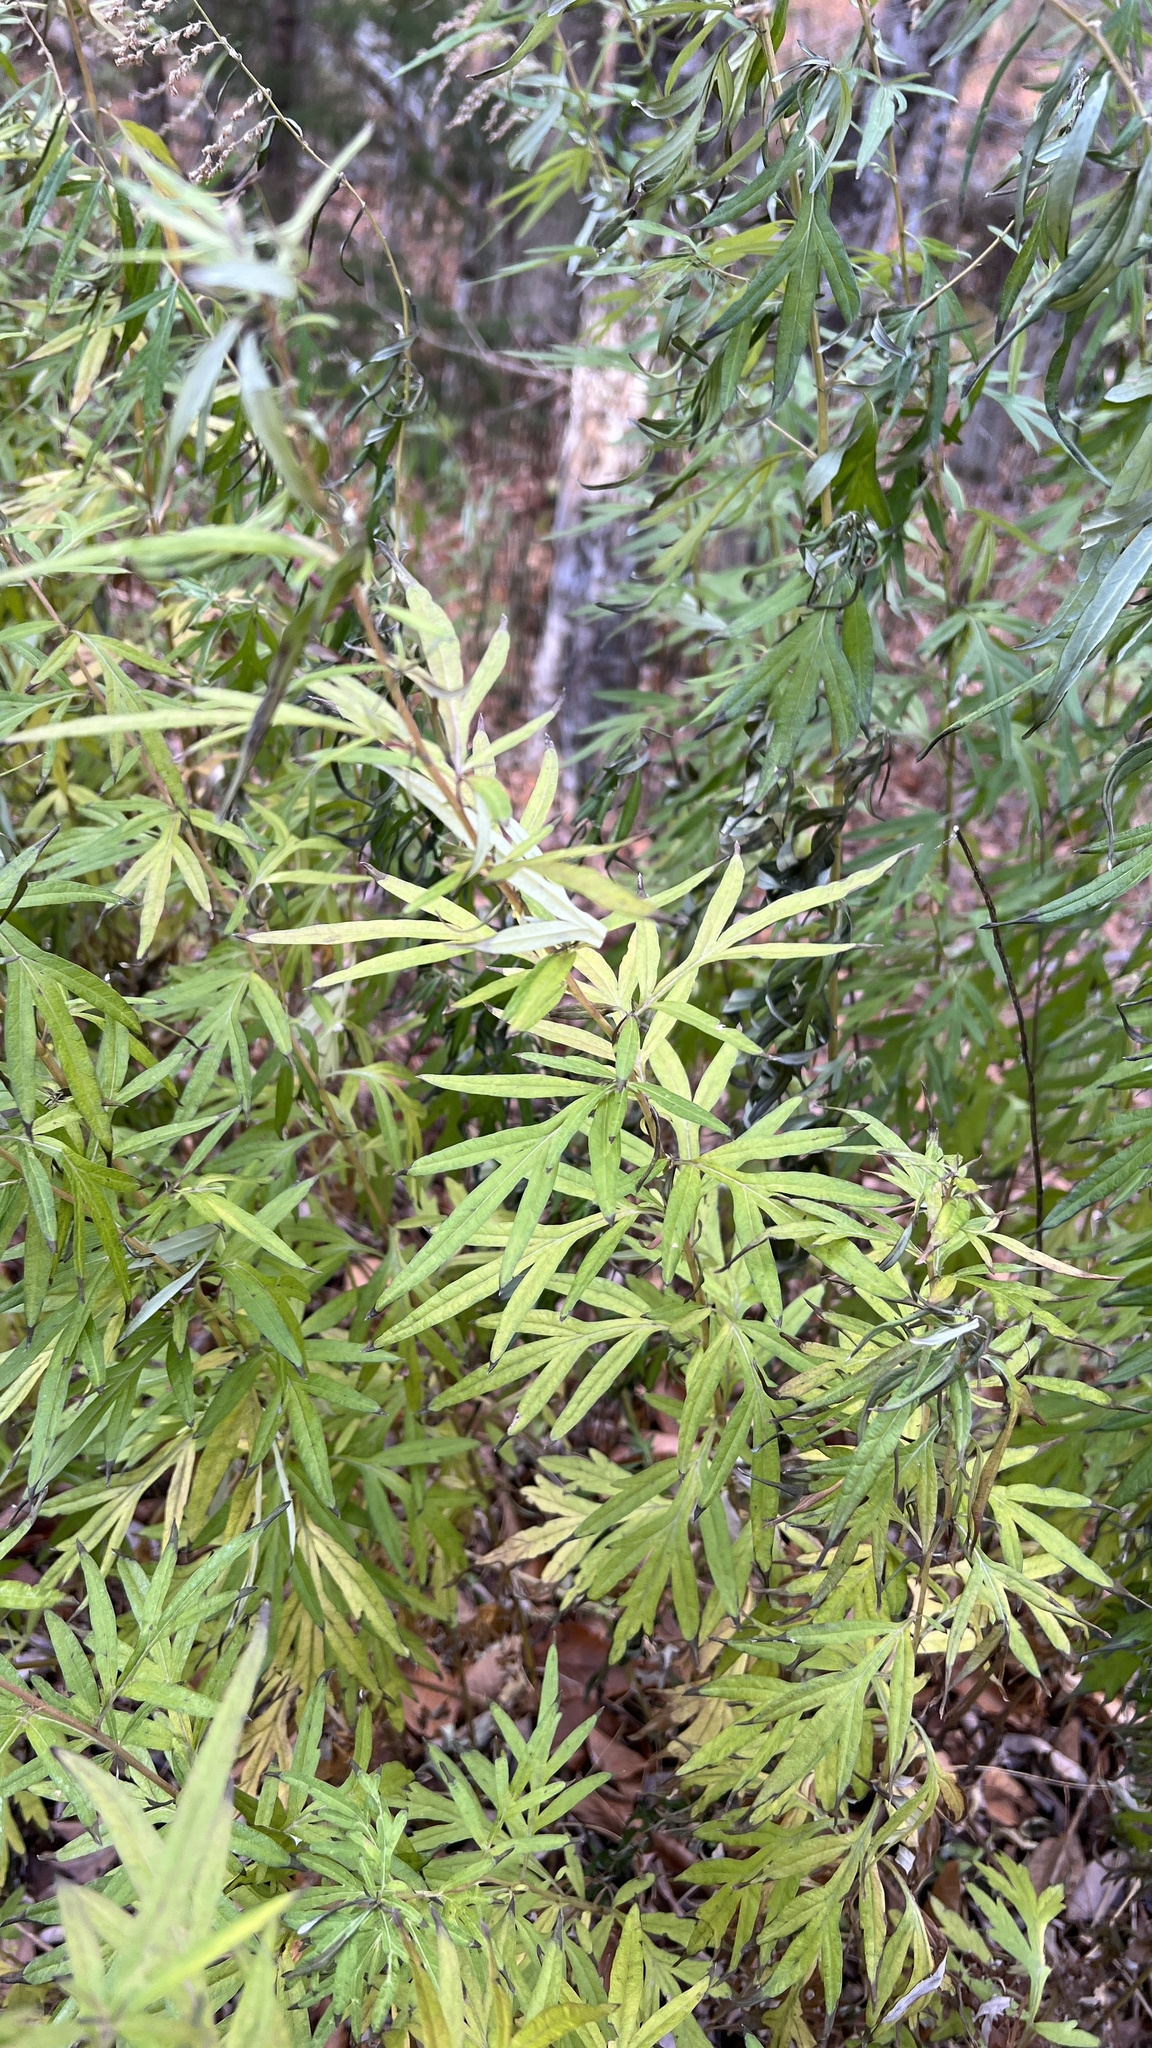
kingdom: Plantae
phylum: Tracheophyta
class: Magnoliopsida
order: Asterales
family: Asteraceae
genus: Artemisia
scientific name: Artemisia vulgaris
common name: Mugwort
